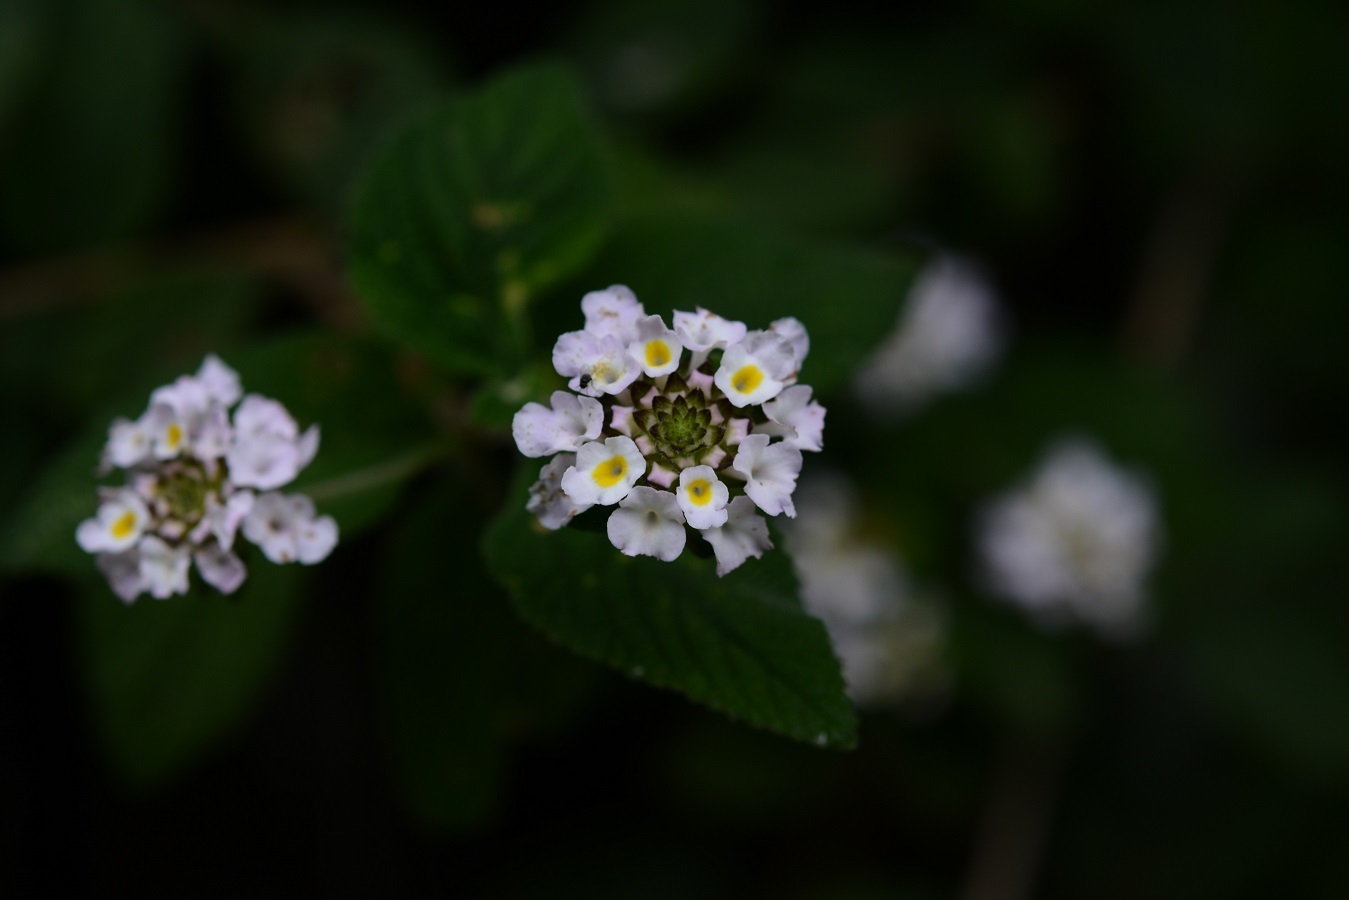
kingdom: Plantae
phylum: Tracheophyta
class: Magnoliopsida
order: Lamiales
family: Verbenaceae
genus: Lantana
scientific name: Lantana velutina
